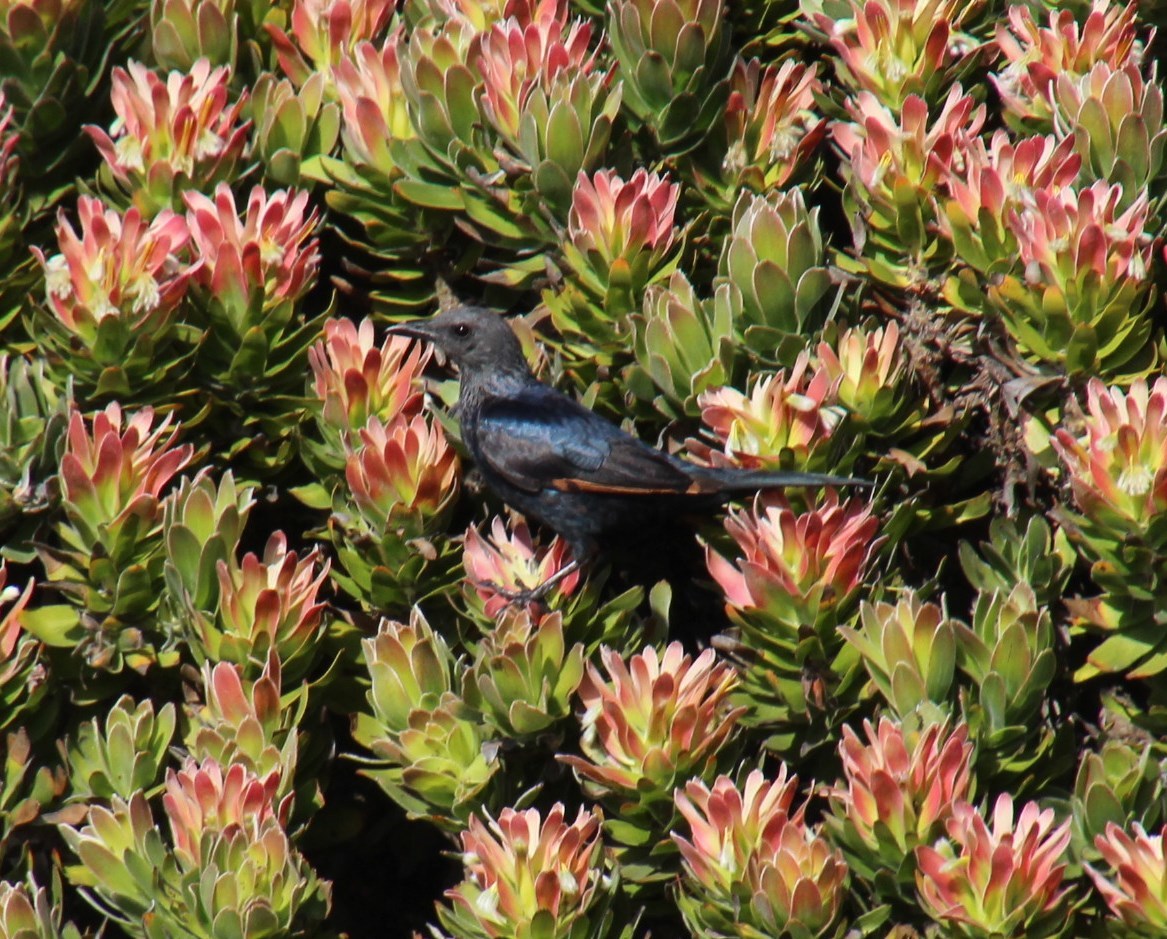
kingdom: Animalia
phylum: Chordata
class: Aves
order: Passeriformes
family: Sturnidae
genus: Onychognathus
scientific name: Onychognathus morio
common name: Red-winged starling
